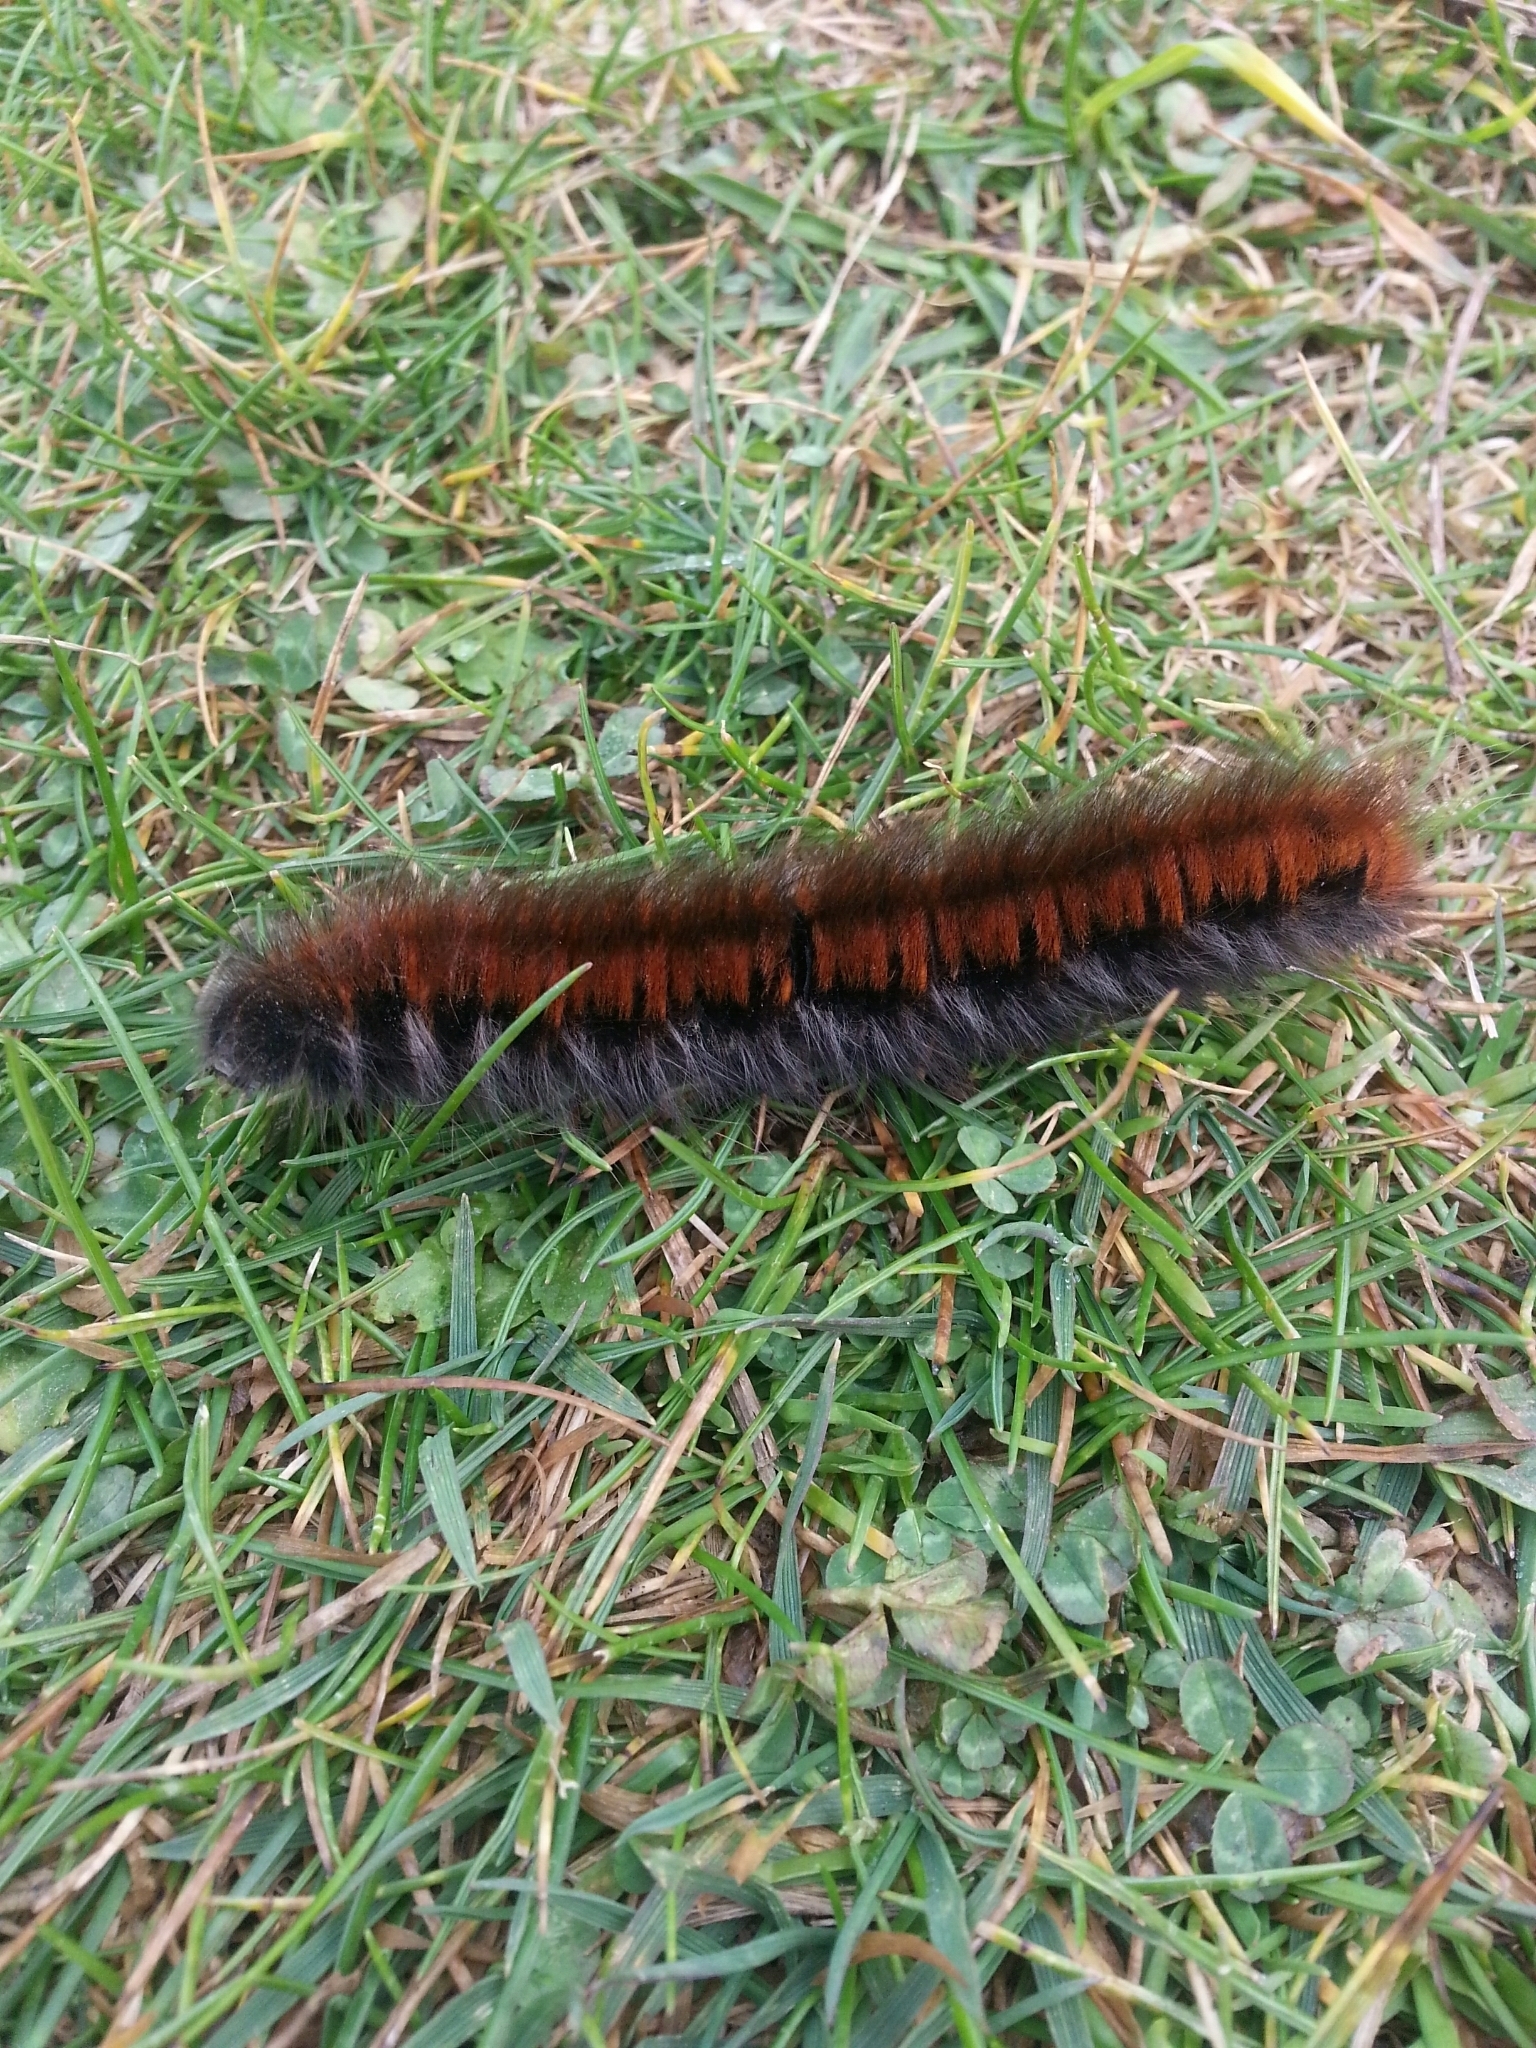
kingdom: Animalia
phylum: Arthropoda
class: Insecta
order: Lepidoptera
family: Lasiocampidae
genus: Macrothylacia
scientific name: Macrothylacia rubi
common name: Fox moth
